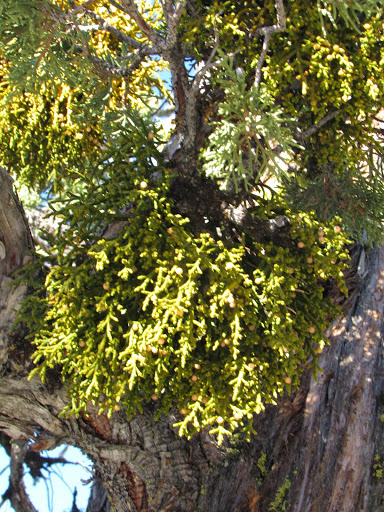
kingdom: Plantae
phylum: Tracheophyta
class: Magnoliopsida
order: Santalales
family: Viscaceae
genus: Phoradendron
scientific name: Phoradendron juniperinum
